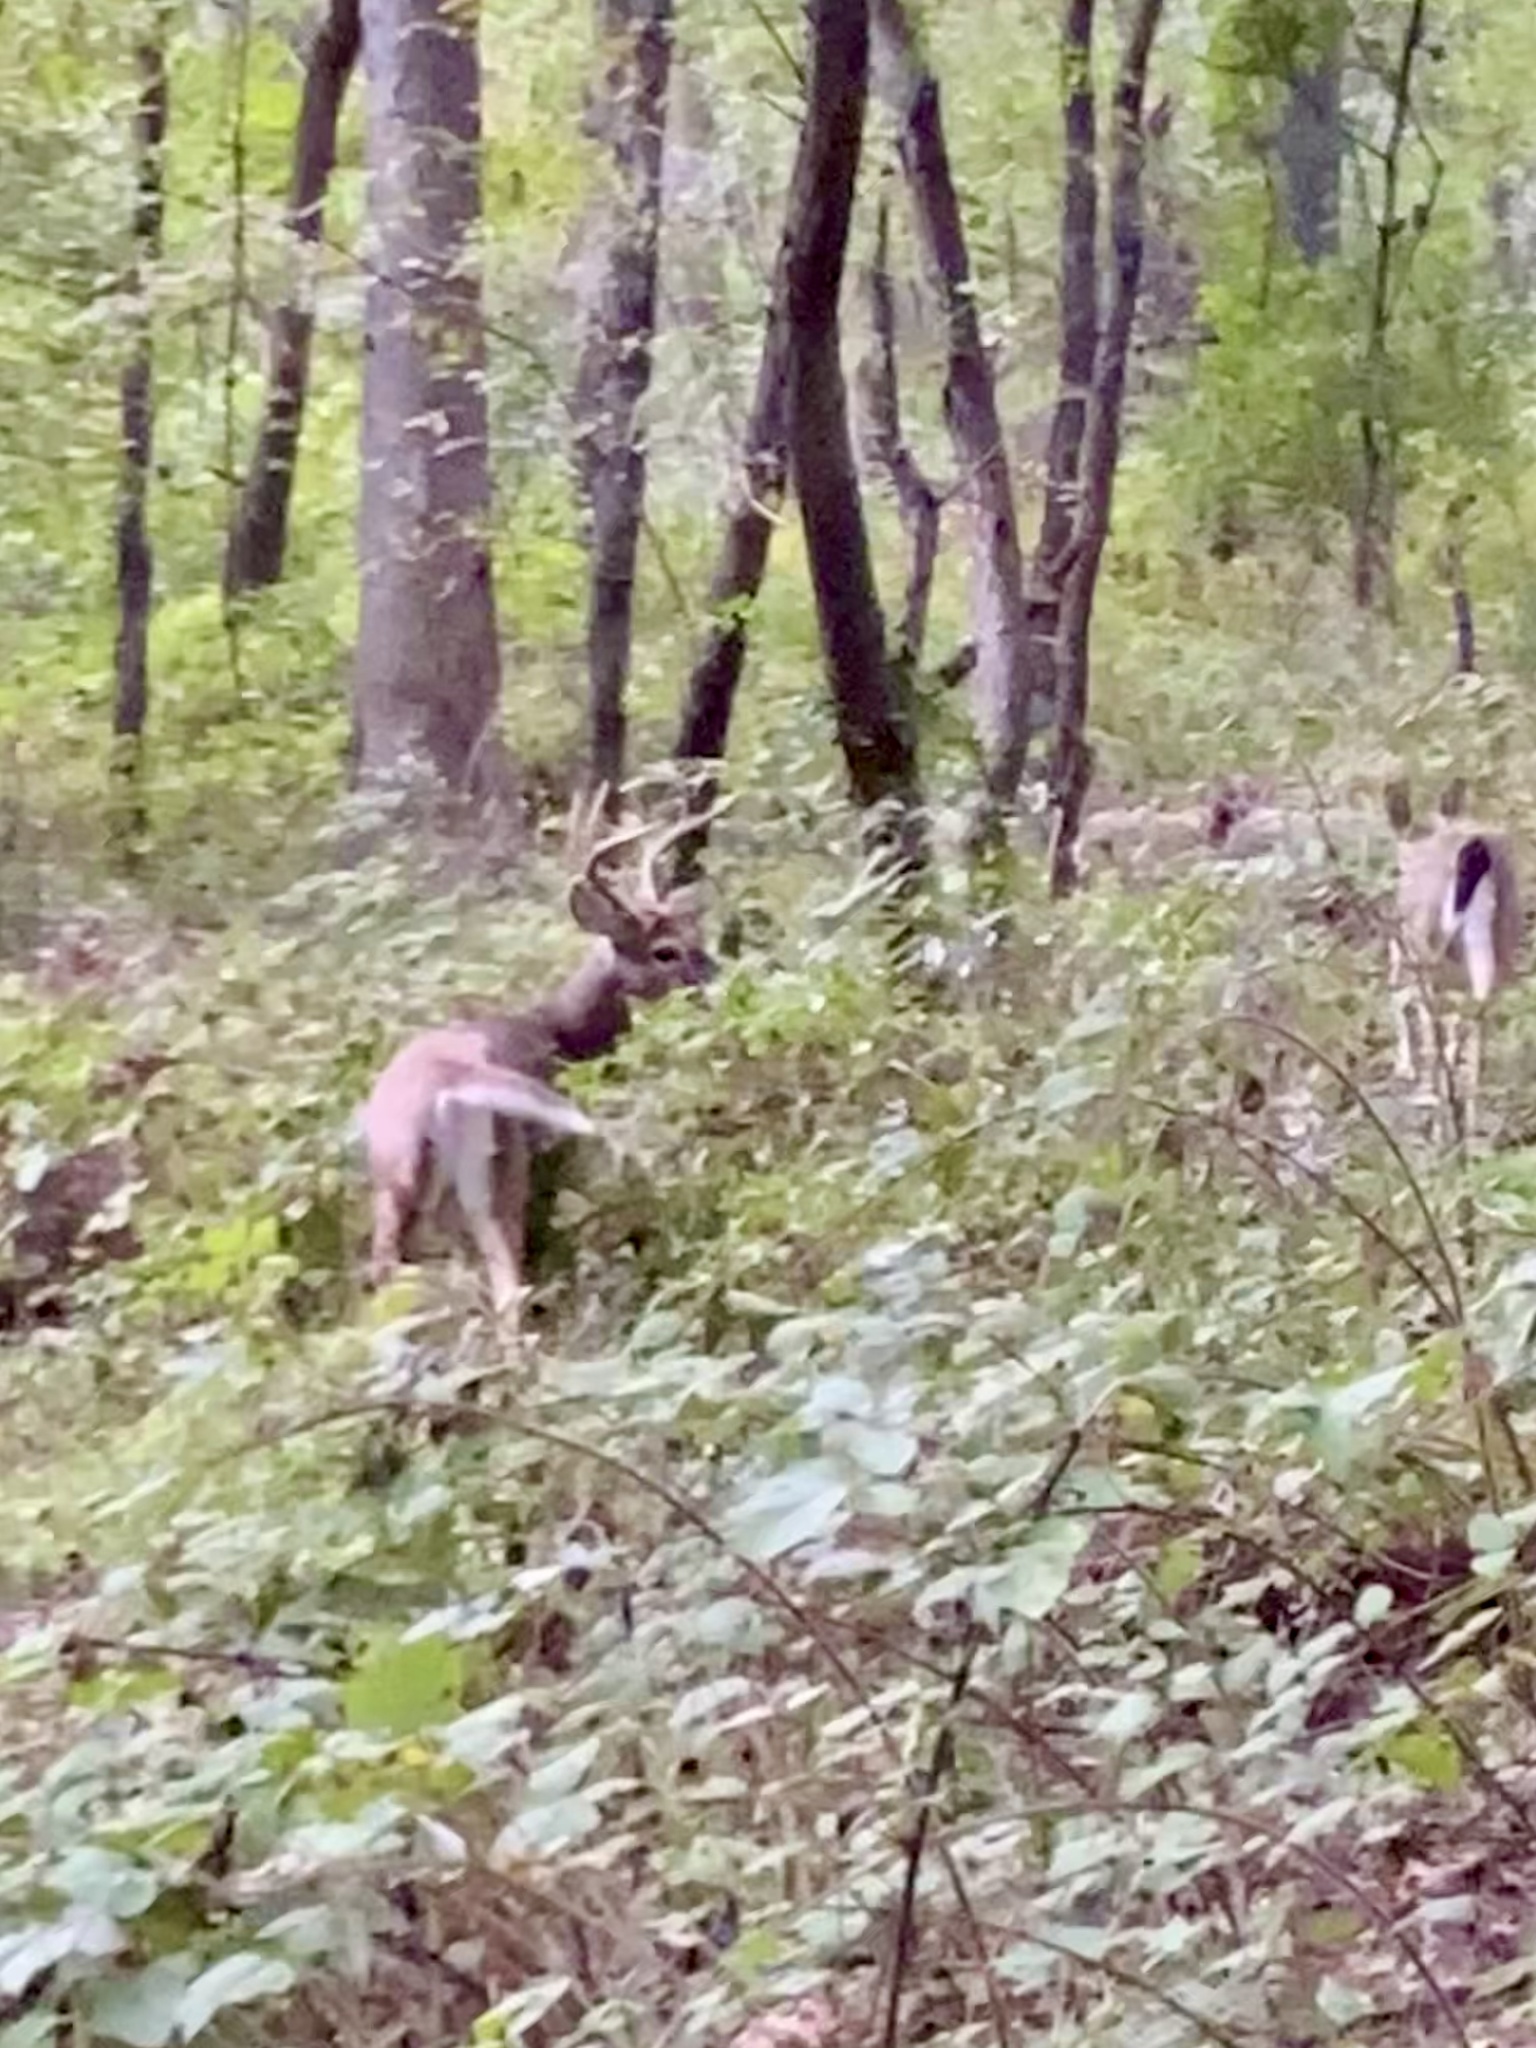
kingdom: Animalia
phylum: Chordata
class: Mammalia
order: Artiodactyla
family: Cervidae
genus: Odocoileus
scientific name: Odocoileus virginianus
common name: White-tailed deer
